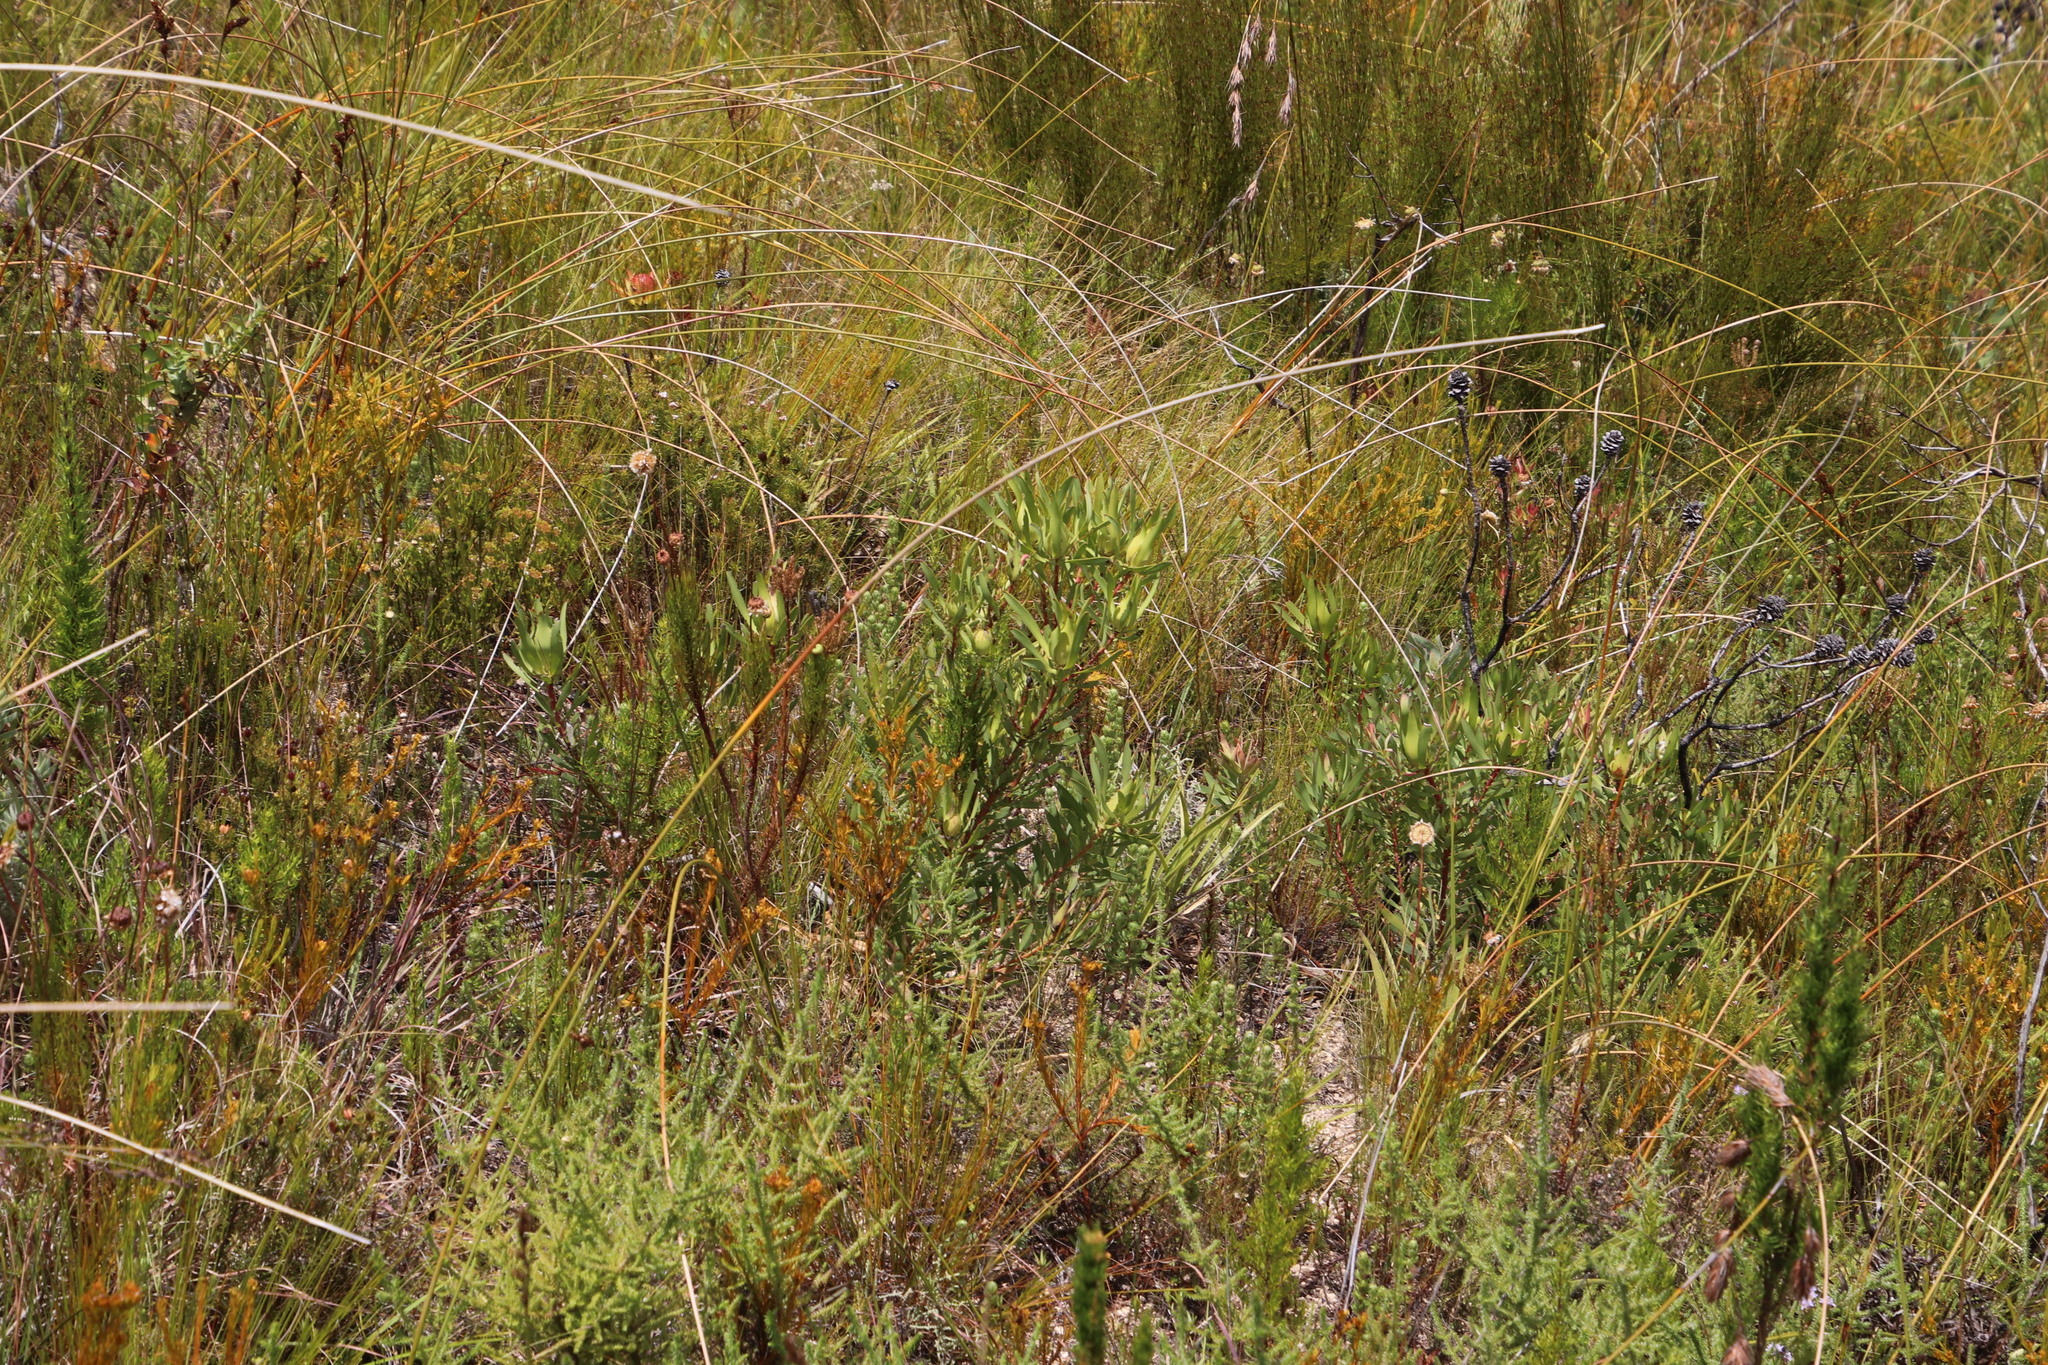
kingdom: Plantae
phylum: Tracheophyta
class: Magnoliopsida
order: Proteales
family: Proteaceae
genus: Leucadendron
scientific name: Leucadendron salignum
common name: Common sunshine conebush
